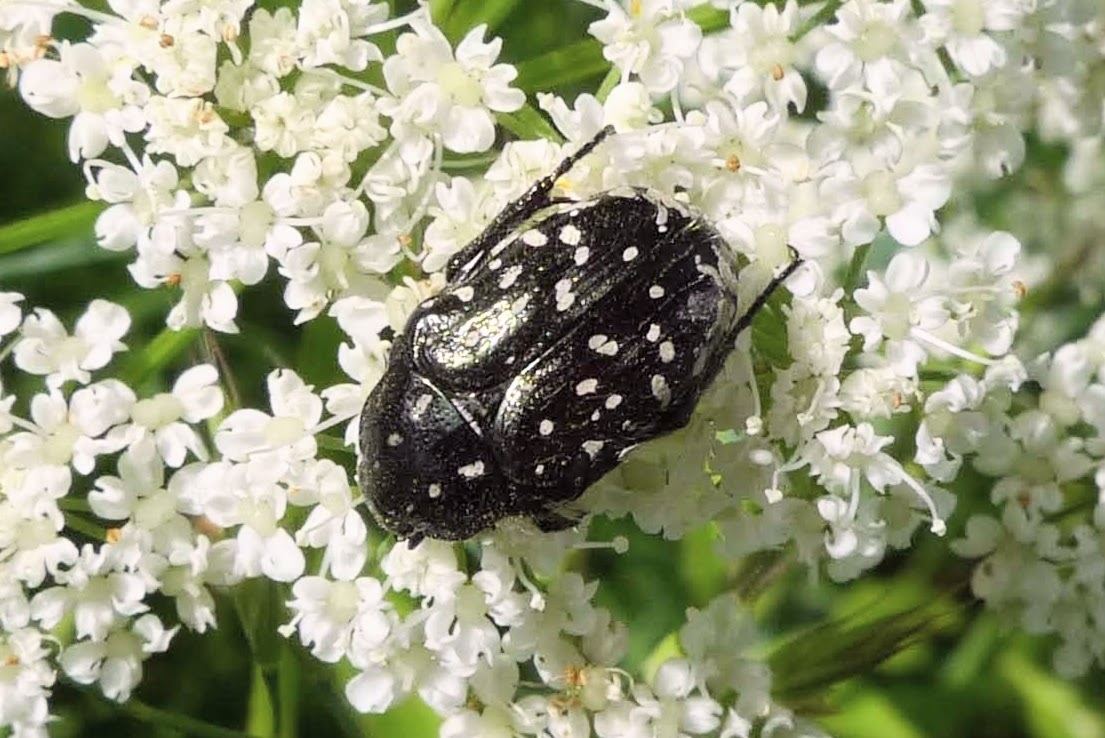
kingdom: Animalia
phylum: Arthropoda
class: Insecta
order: Coleoptera
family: Scarabaeidae
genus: Oxythyrea
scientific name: Oxythyrea funesta
